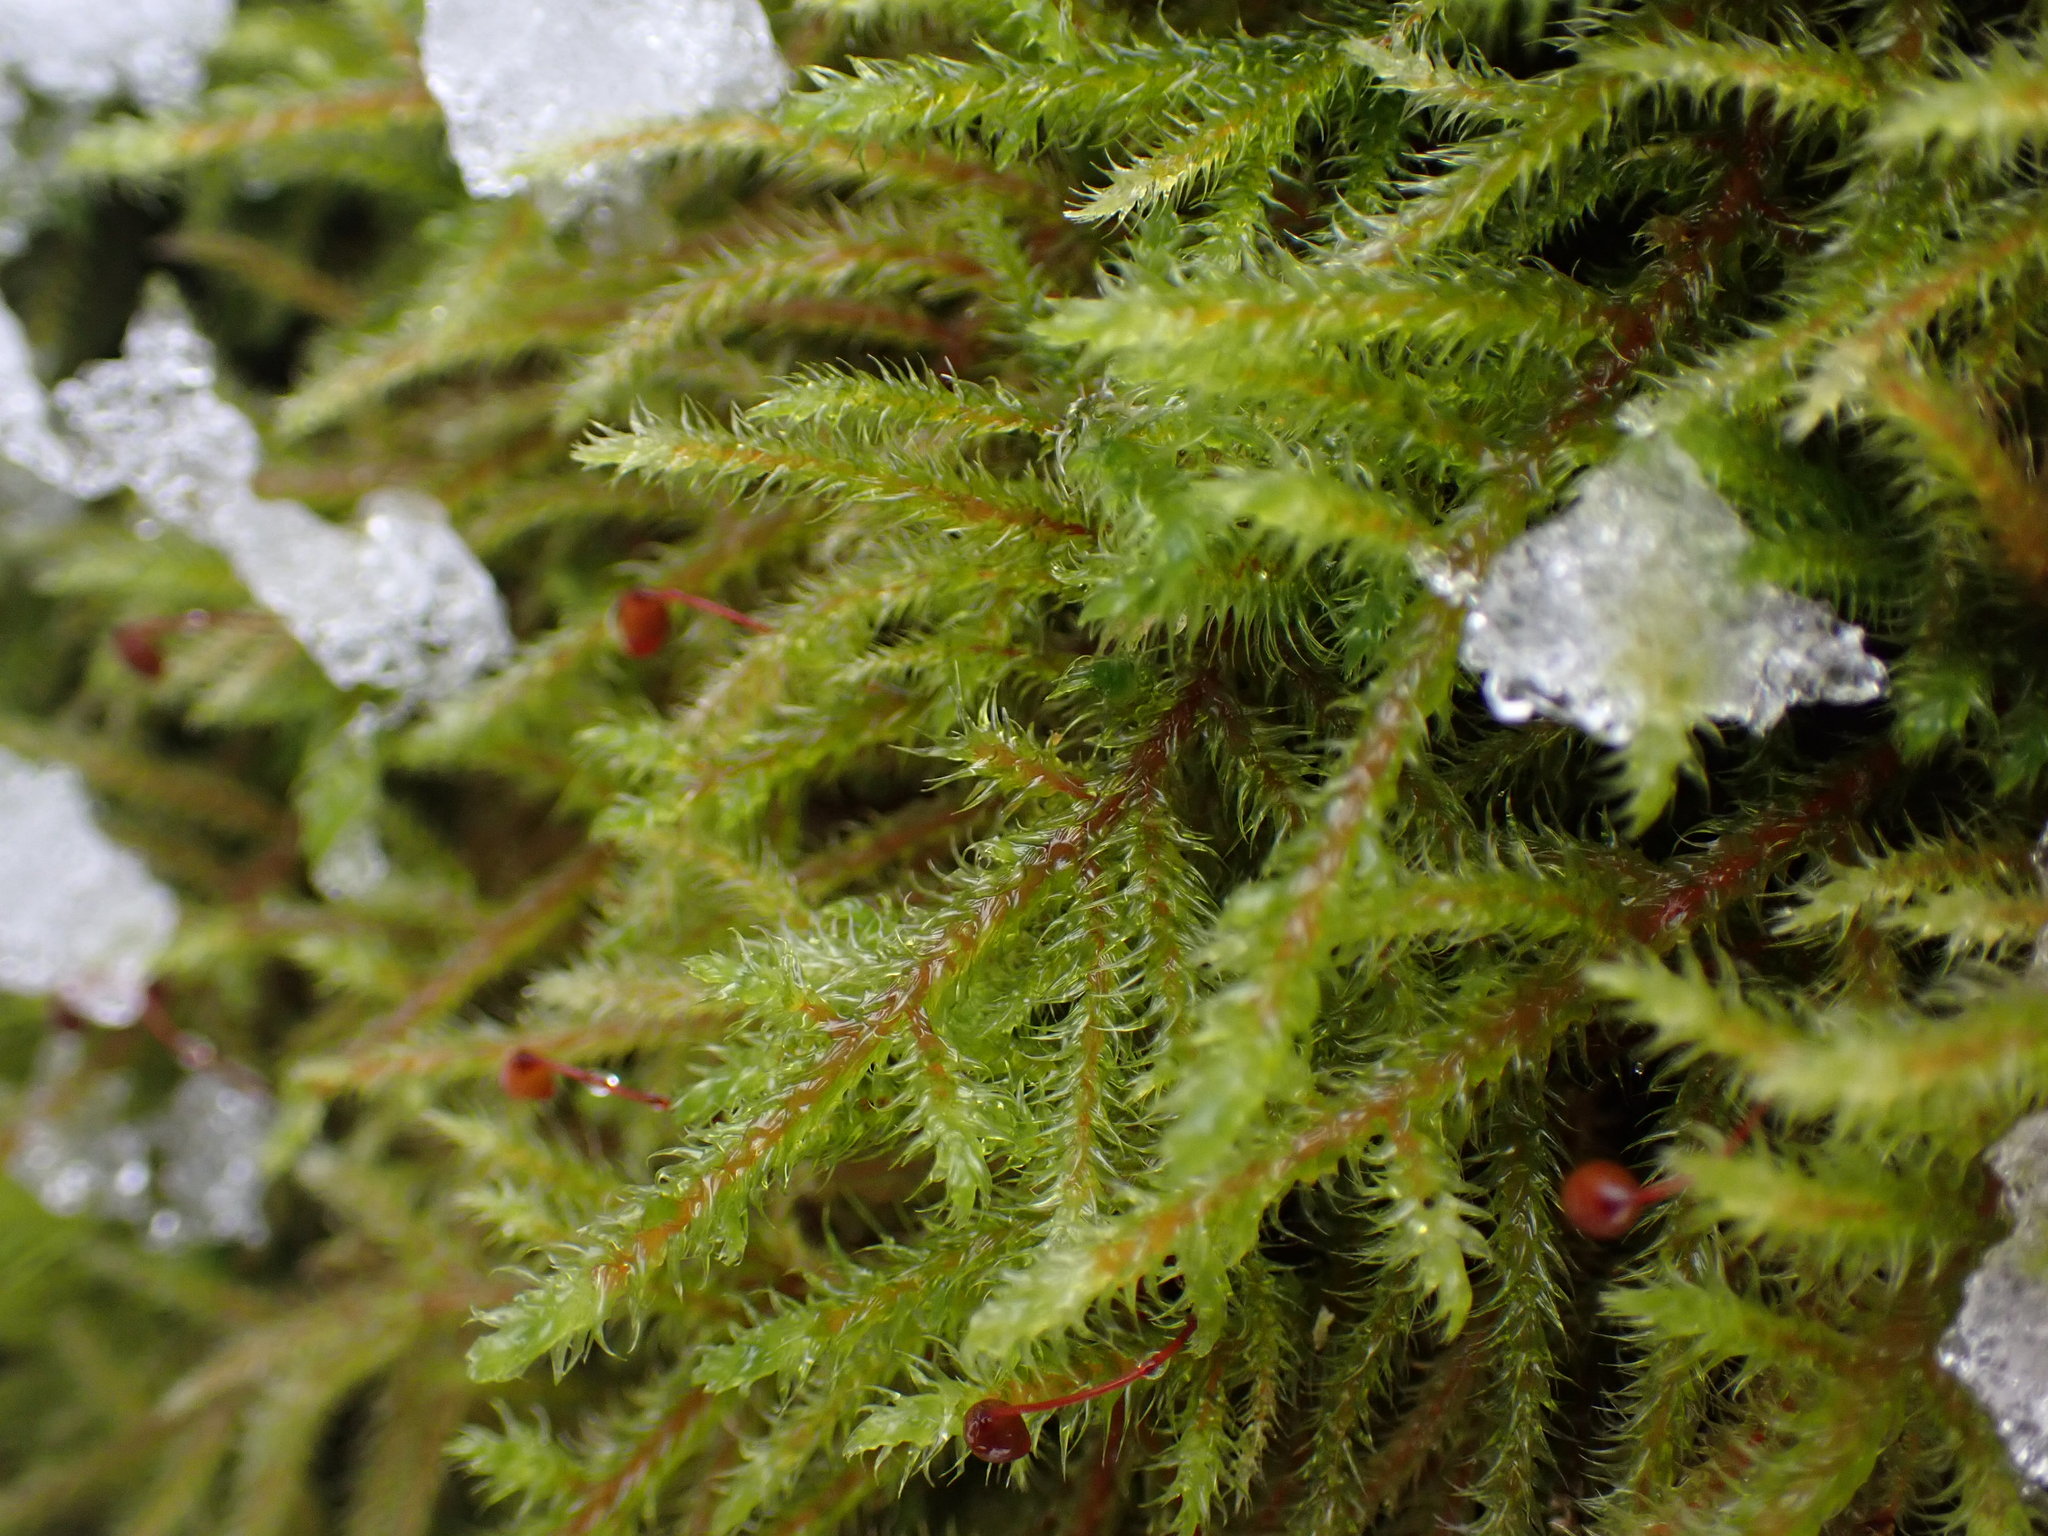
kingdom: Plantae
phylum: Bryophyta
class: Bryopsida
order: Hypnales
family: Hylocomiaceae
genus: Rhytidiadelphus
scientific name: Rhytidiadelphus loreus
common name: Lanky moss
